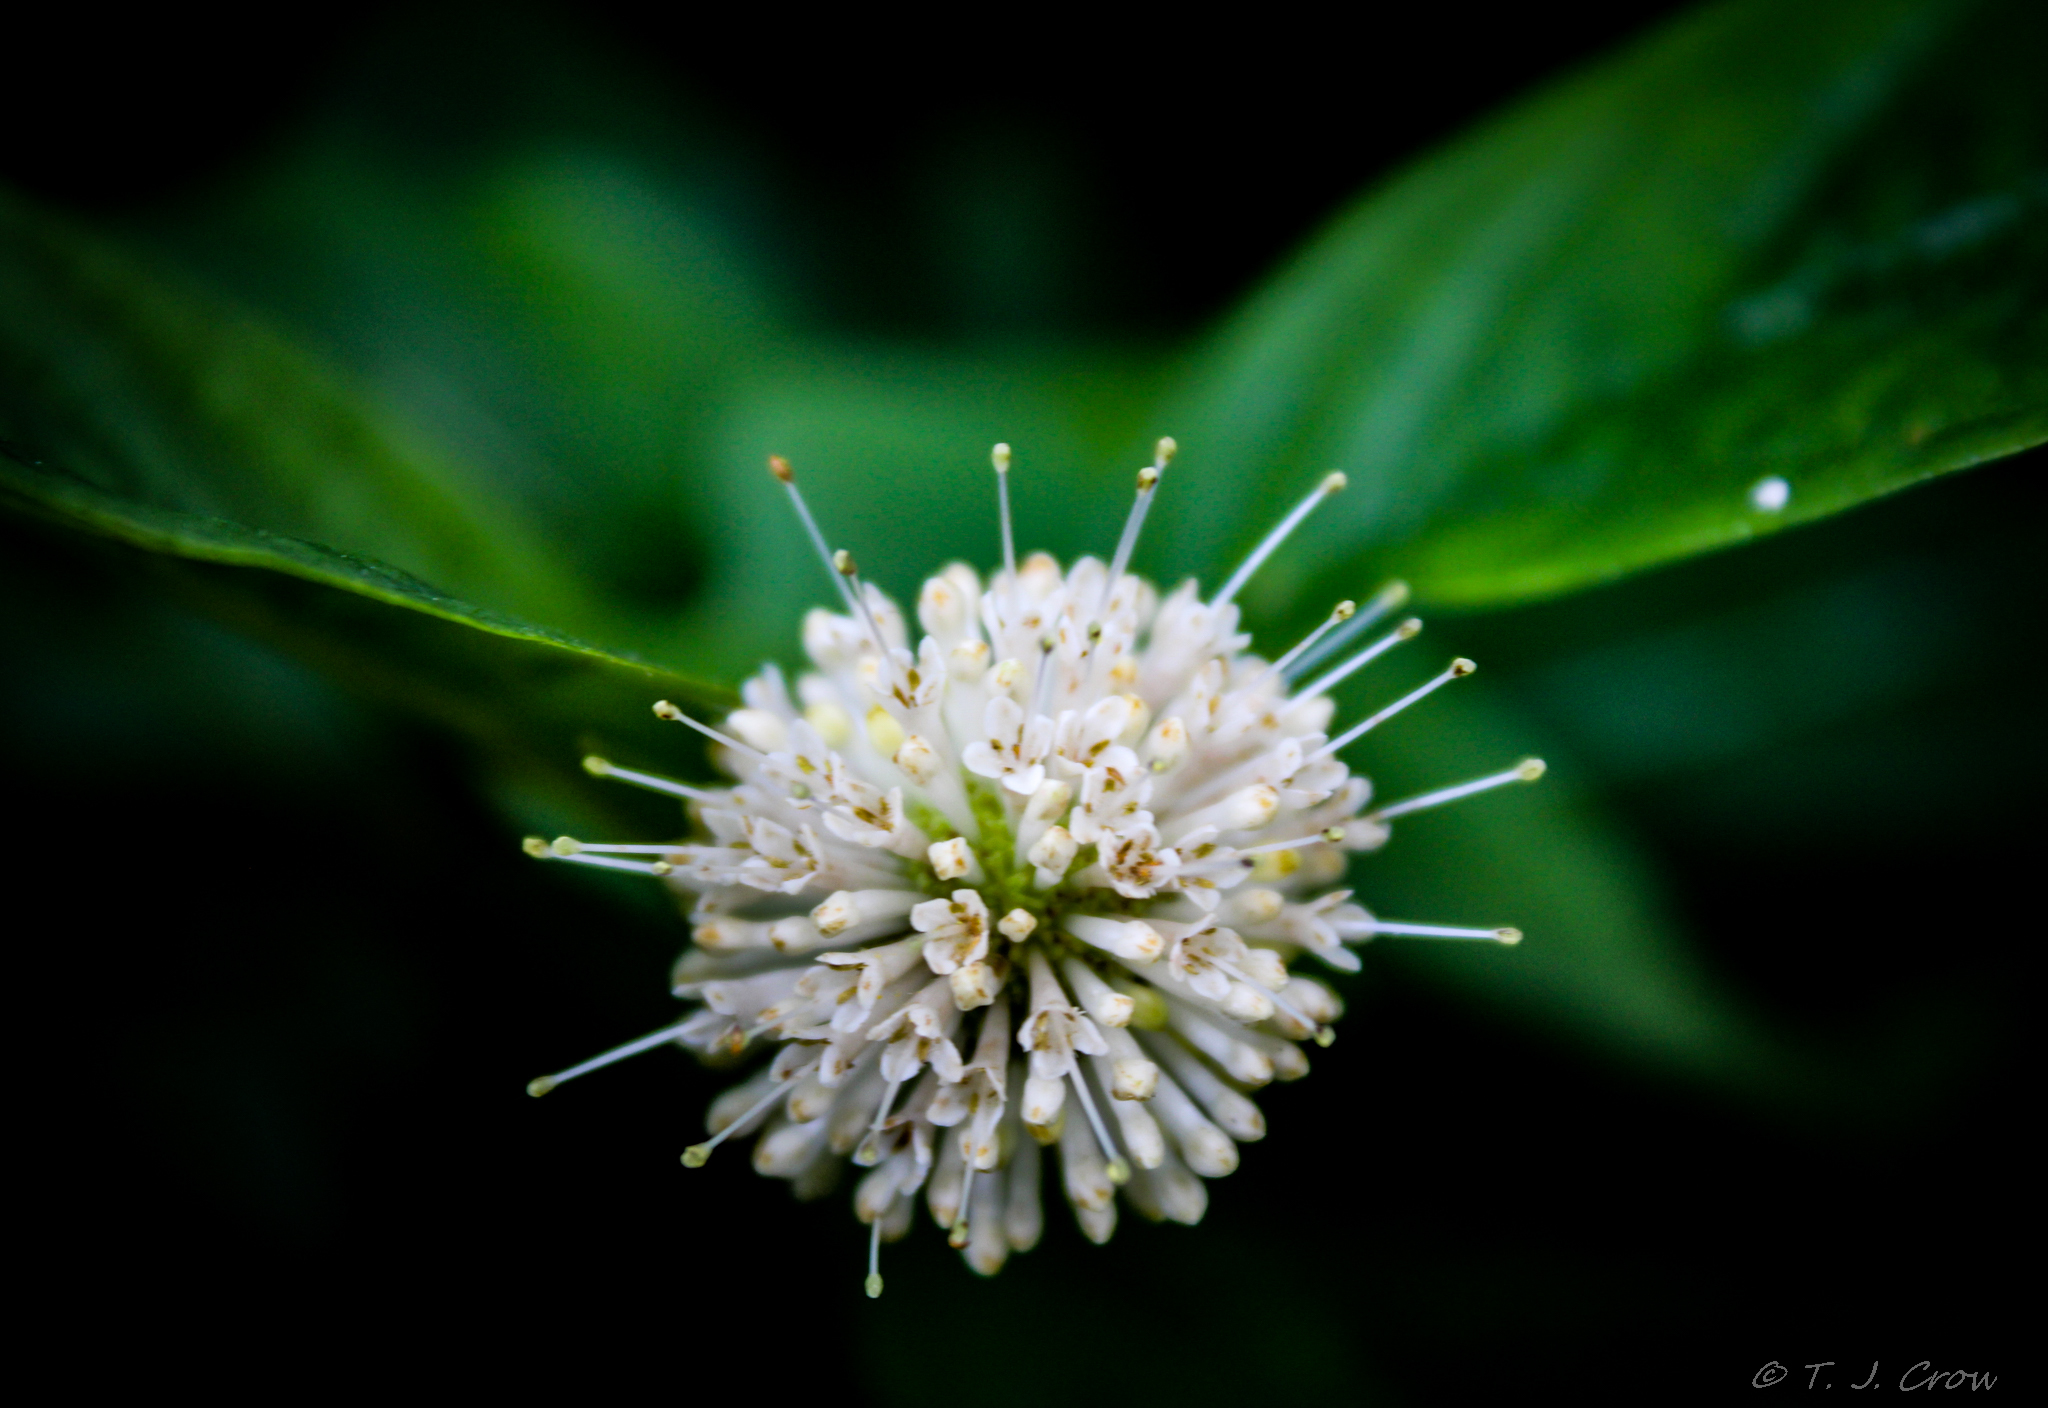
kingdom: Plantae
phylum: Tracheophyta
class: Magnoliopsida
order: Gentianales
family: Rubiaceae
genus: Cephalanthus
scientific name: Cephalanthus occidentalis
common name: Button-willow
